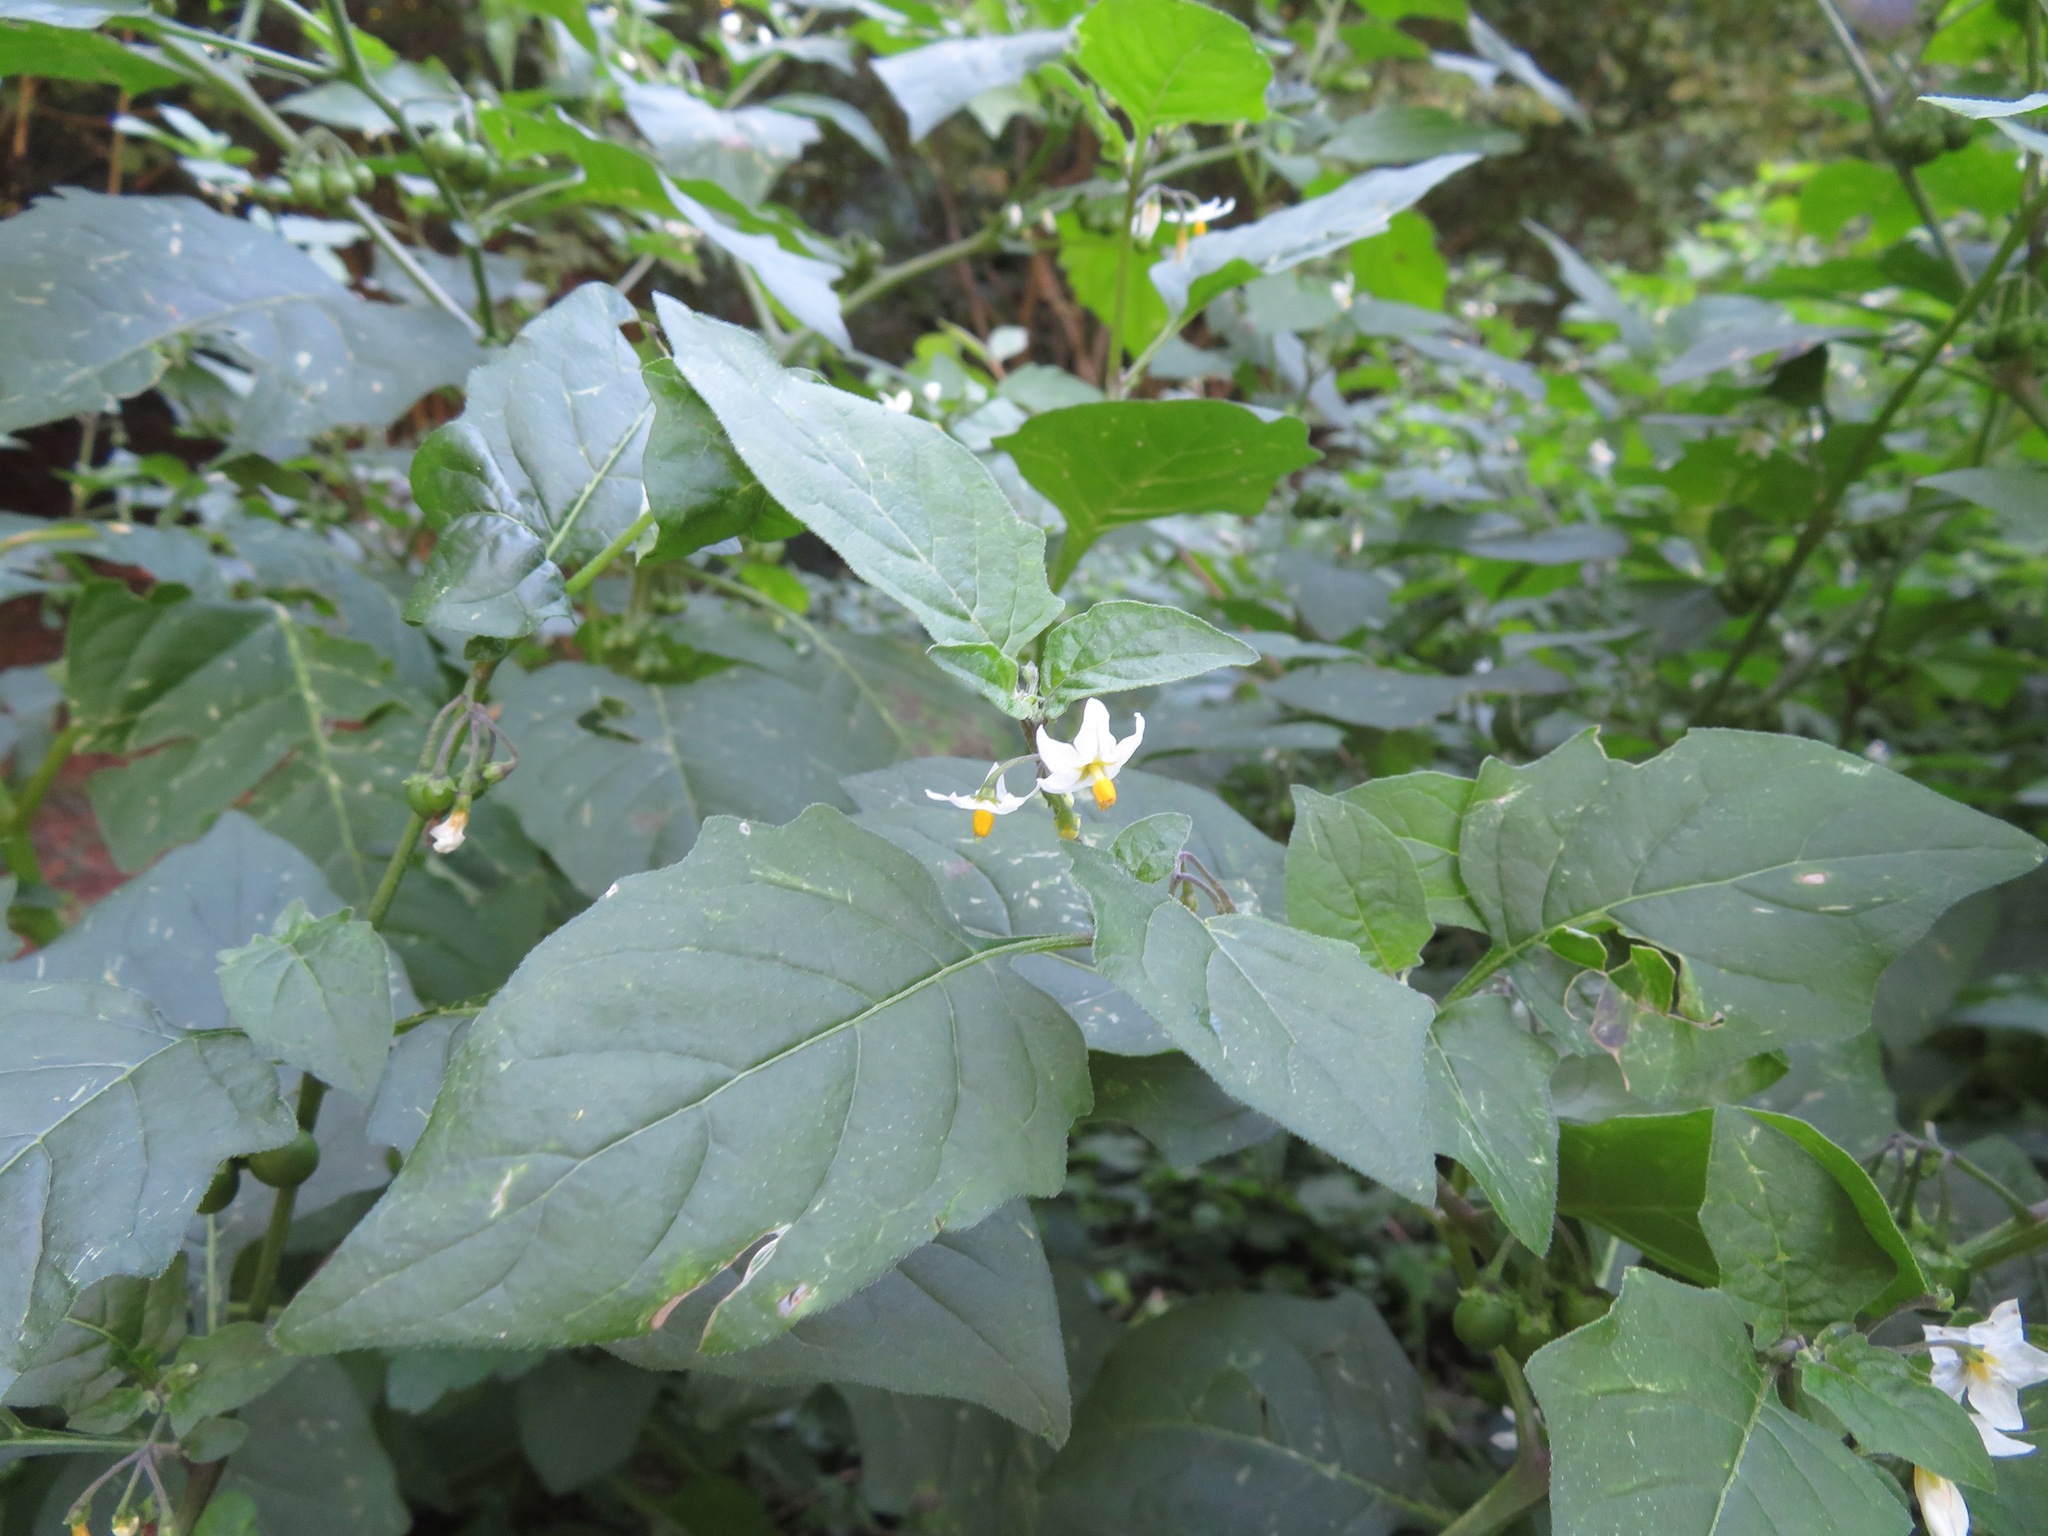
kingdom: Plantae
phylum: Tracheophyta
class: Magnoliopsida
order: Solanales
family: Solanaceae
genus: Solanum
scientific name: Solanum nigrum
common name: Black nightshade
